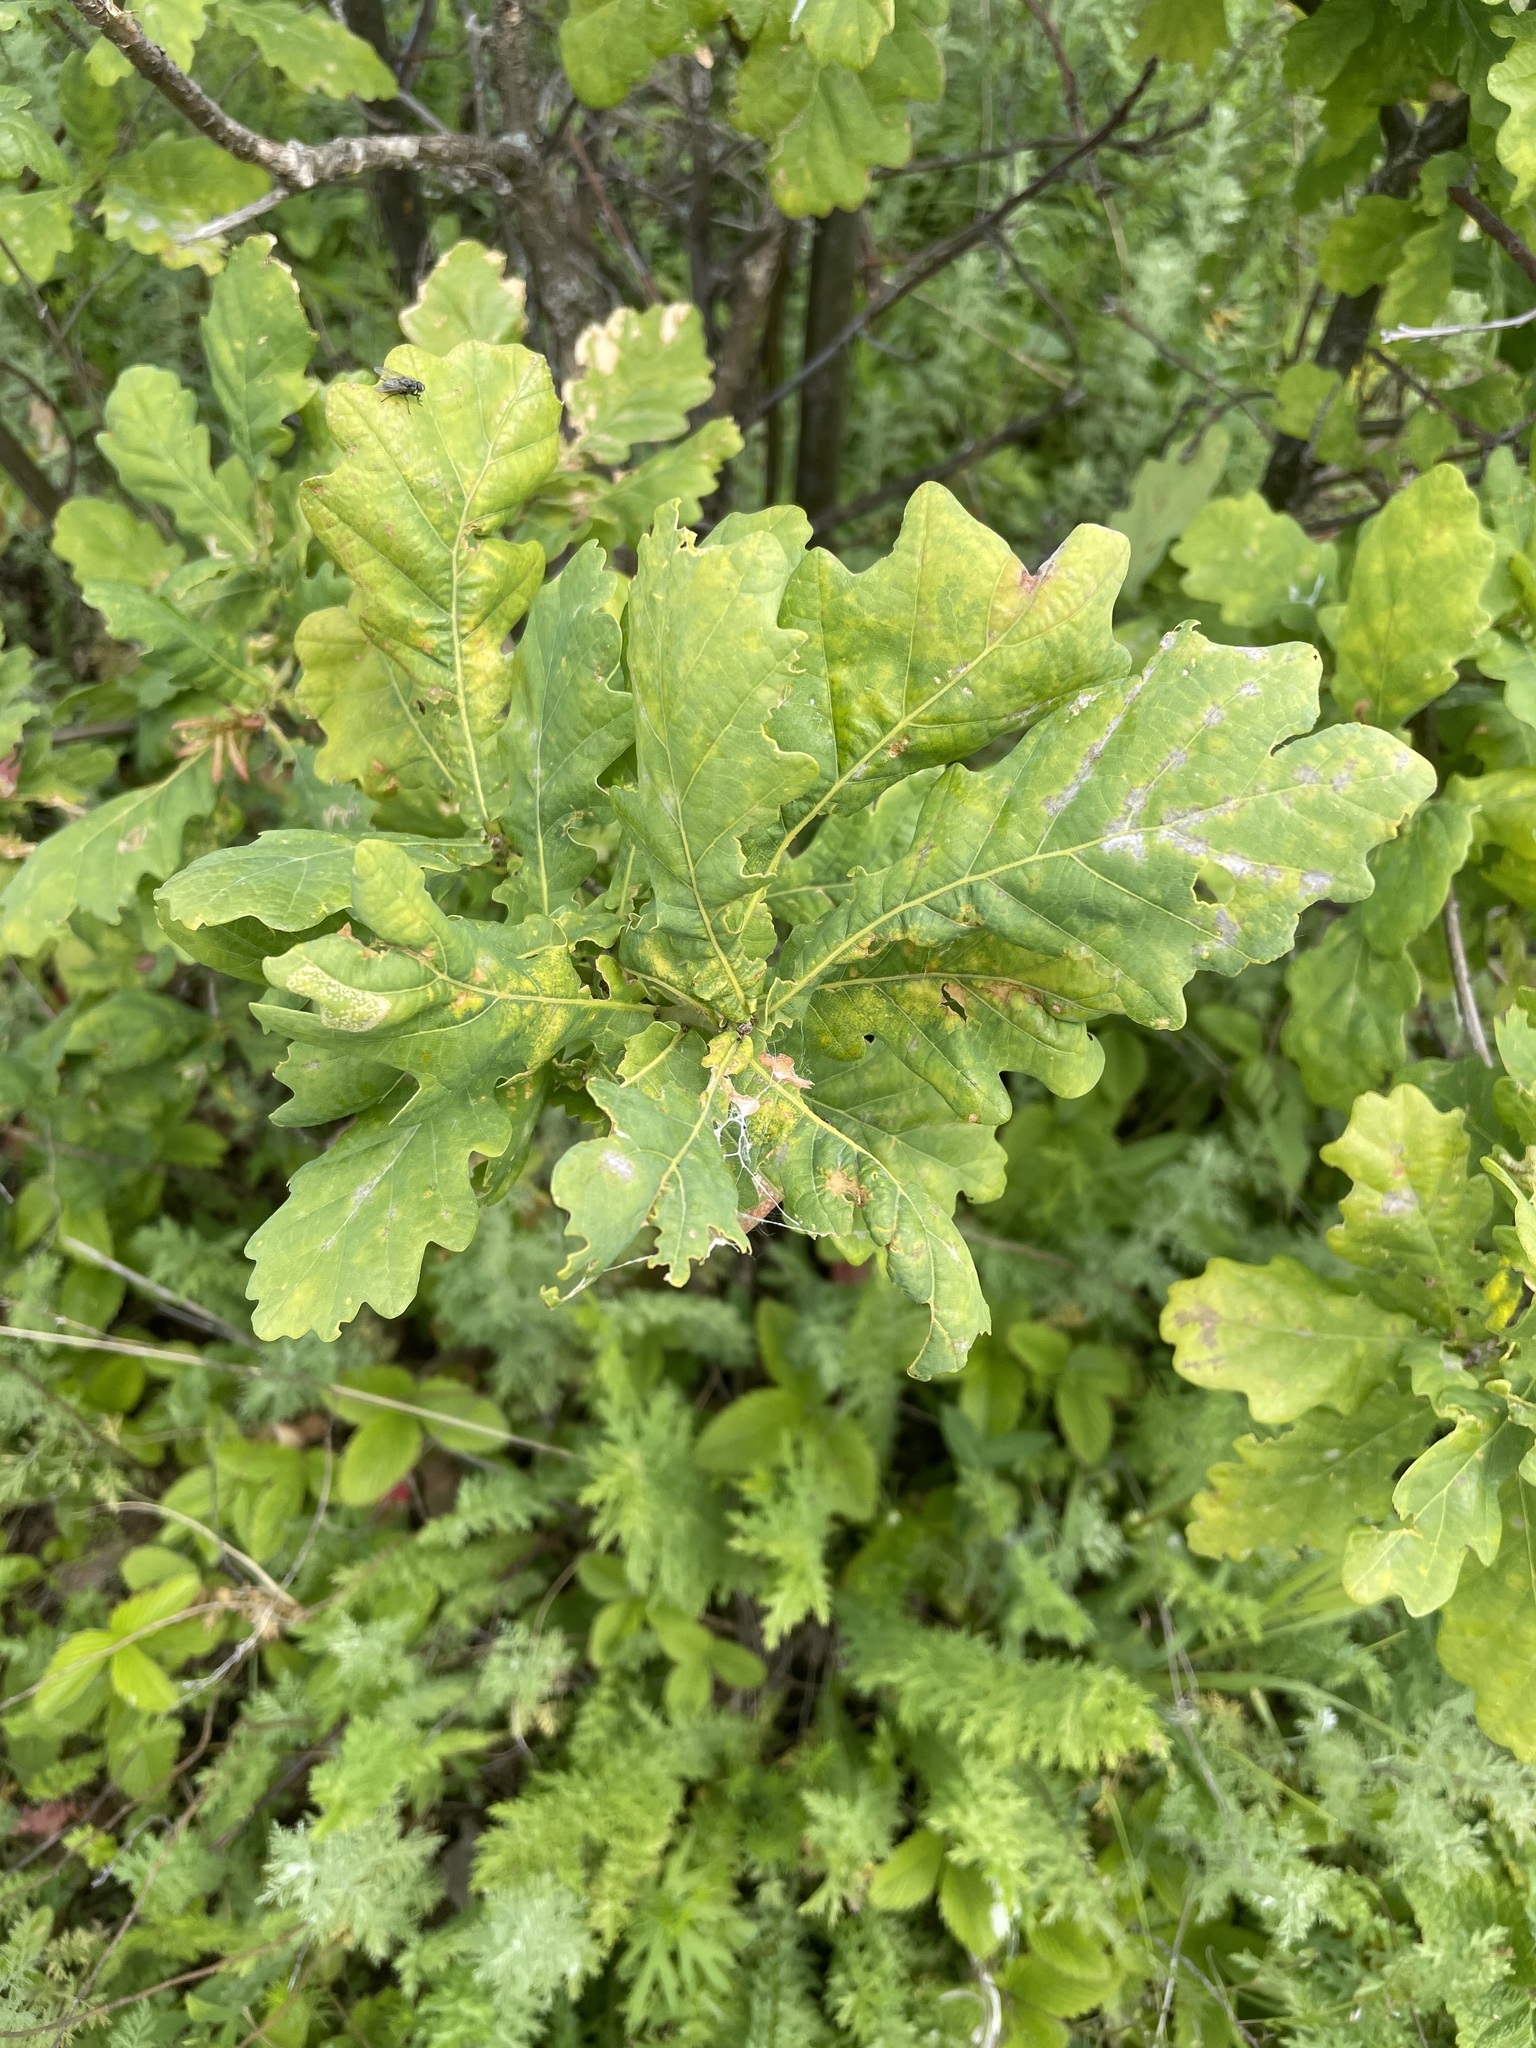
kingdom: Plantae
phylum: Tracheophyta
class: Magnoliopsida
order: Fagales
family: Fagaceae
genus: Quercus
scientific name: Quercus robur
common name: Pedunculate oak
